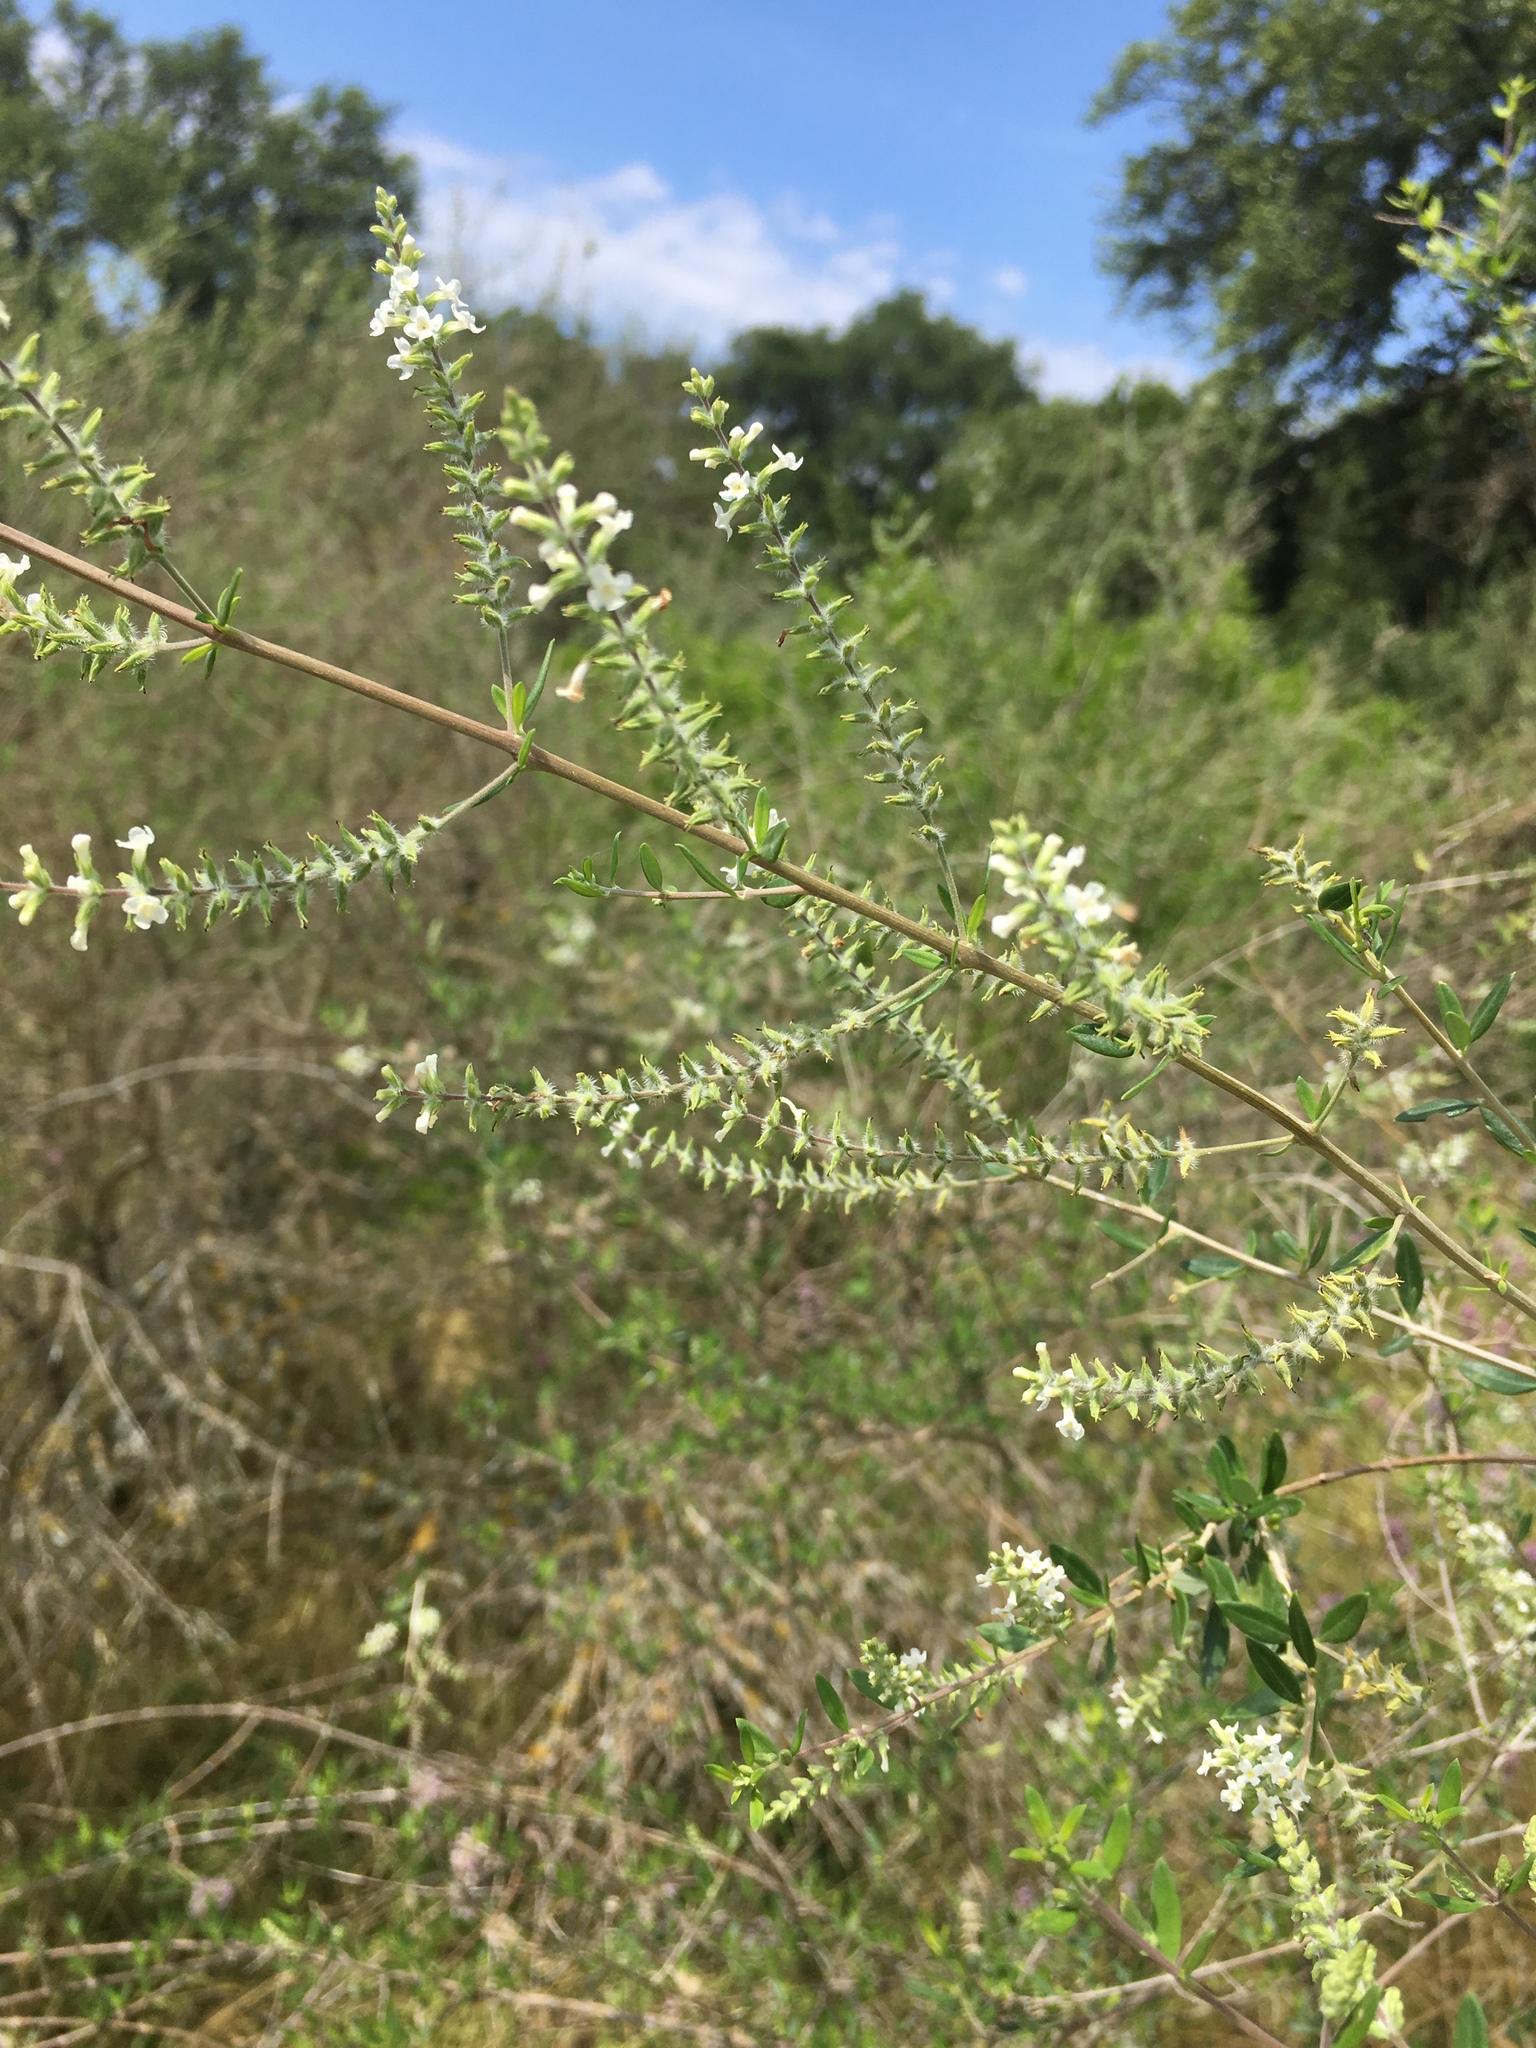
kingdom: Plantae
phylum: Tracheophyta
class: Magnoliopsida
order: Lamiales
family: Verbenaceae
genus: Aloysia
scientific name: Aloysia gratissima
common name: Common bee-brush
